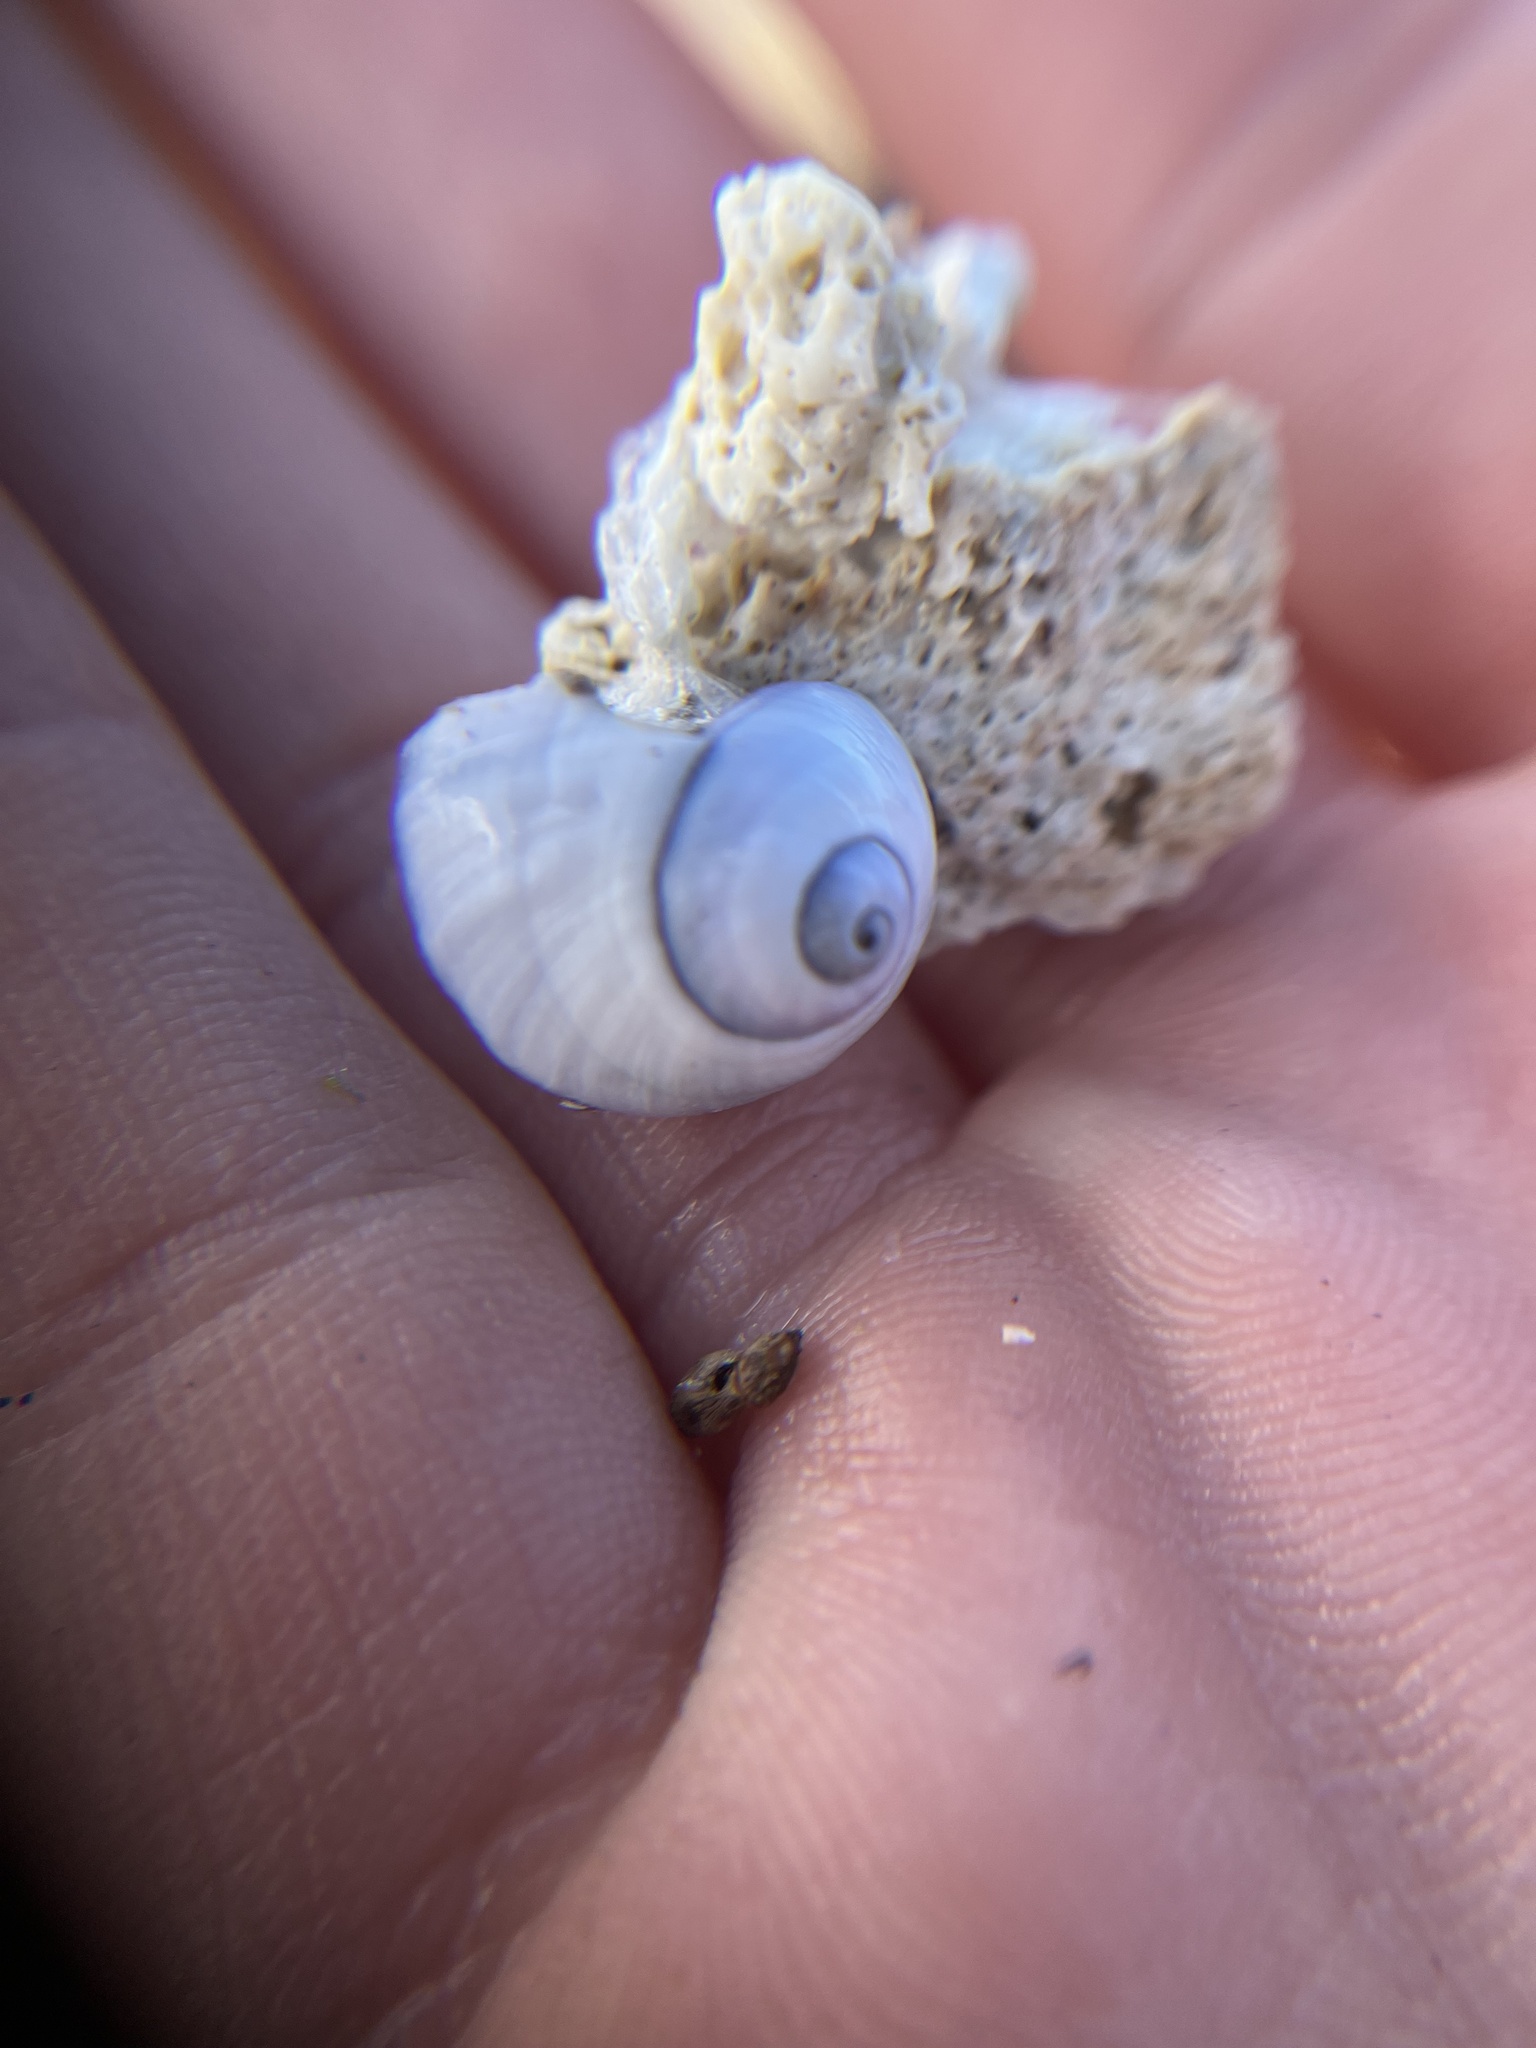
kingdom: Animalia
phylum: Mollusca
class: Gastropoda
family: Epitoniidae
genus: Janthina
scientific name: Janthina janthina
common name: Common janthina
